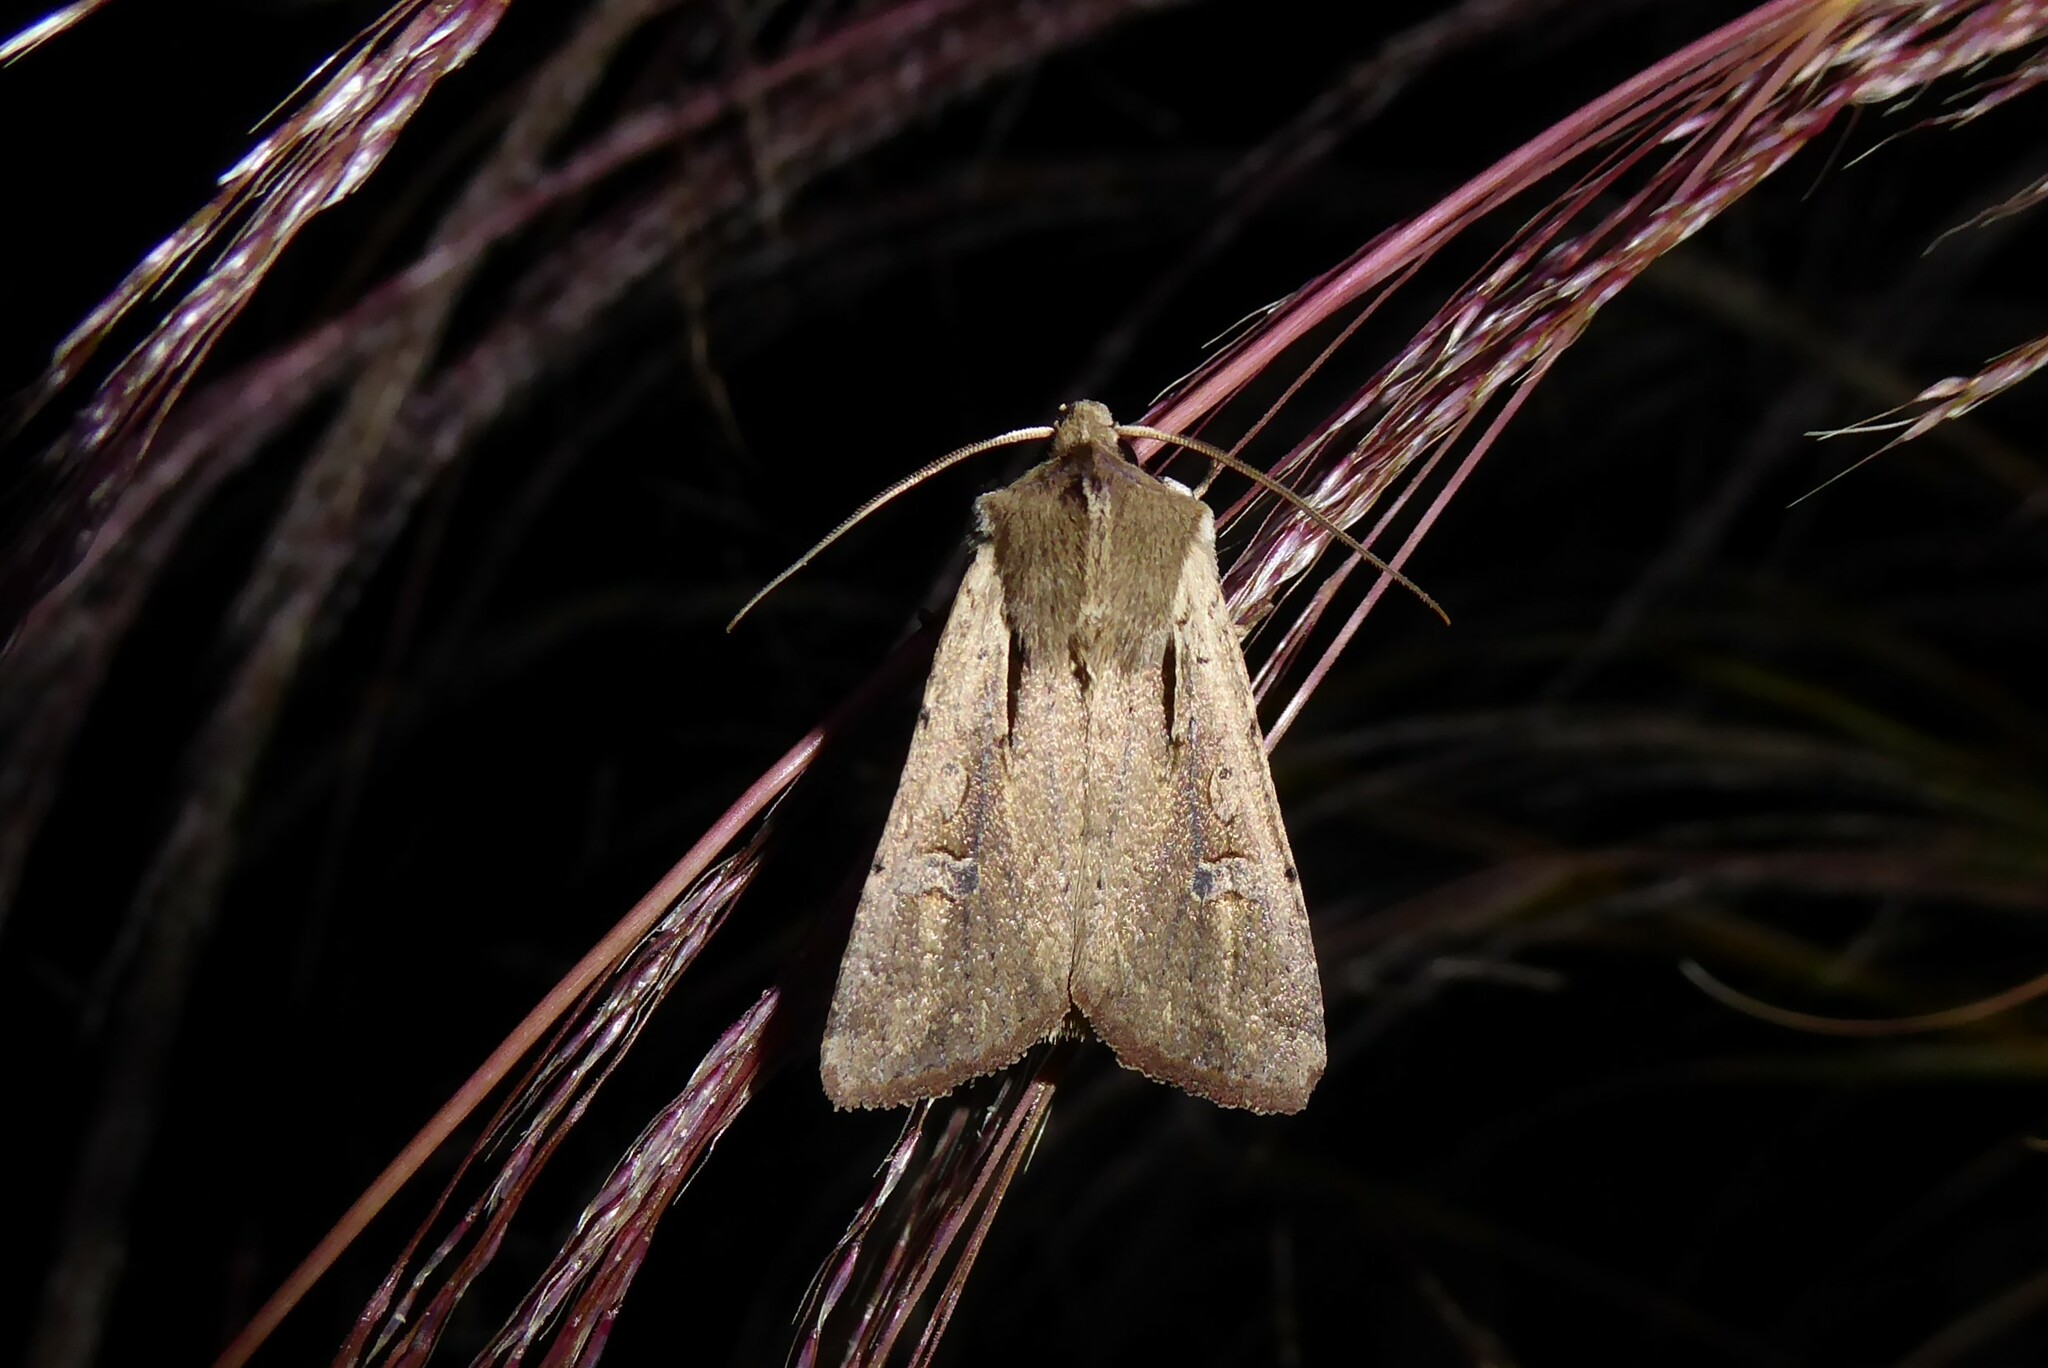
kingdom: Animalia
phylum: Arthropoda
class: Insecta
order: Lepidoptera
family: Noctuidae
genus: Ichneutica
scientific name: Ichneutica atristriga
